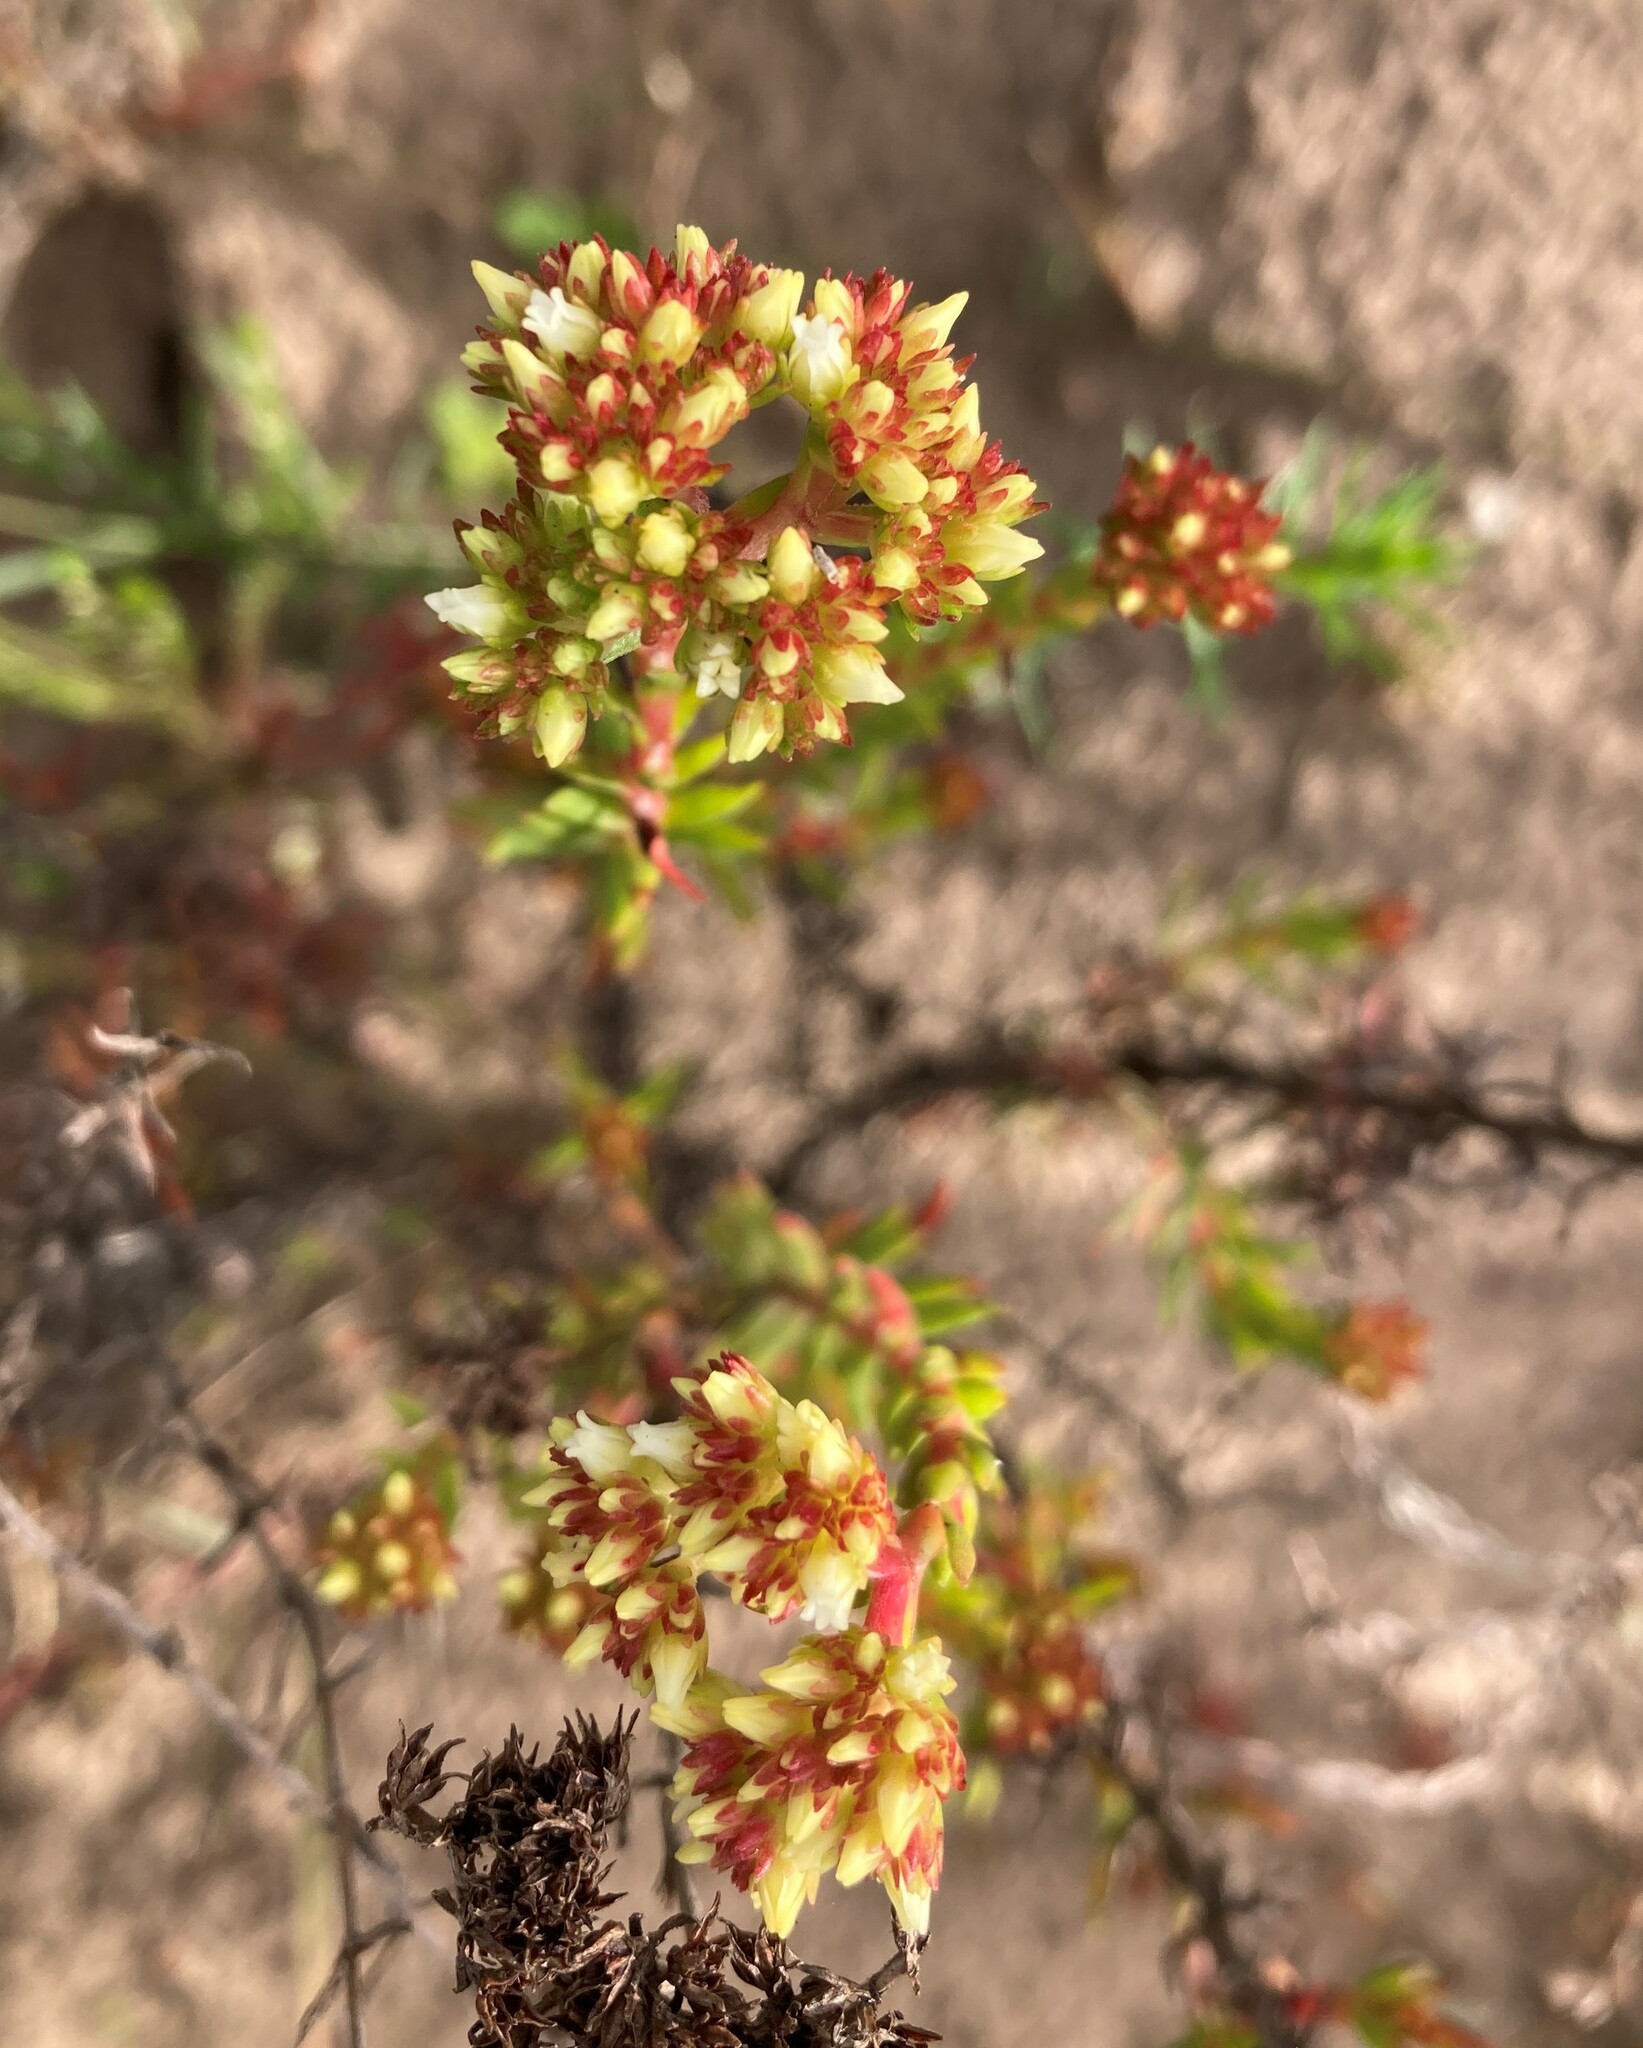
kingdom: Plantae
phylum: Tracheophyta
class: Magnoliopsida
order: Saxifragales
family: Crassulaceae
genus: Crassula
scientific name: Crassula subulata
